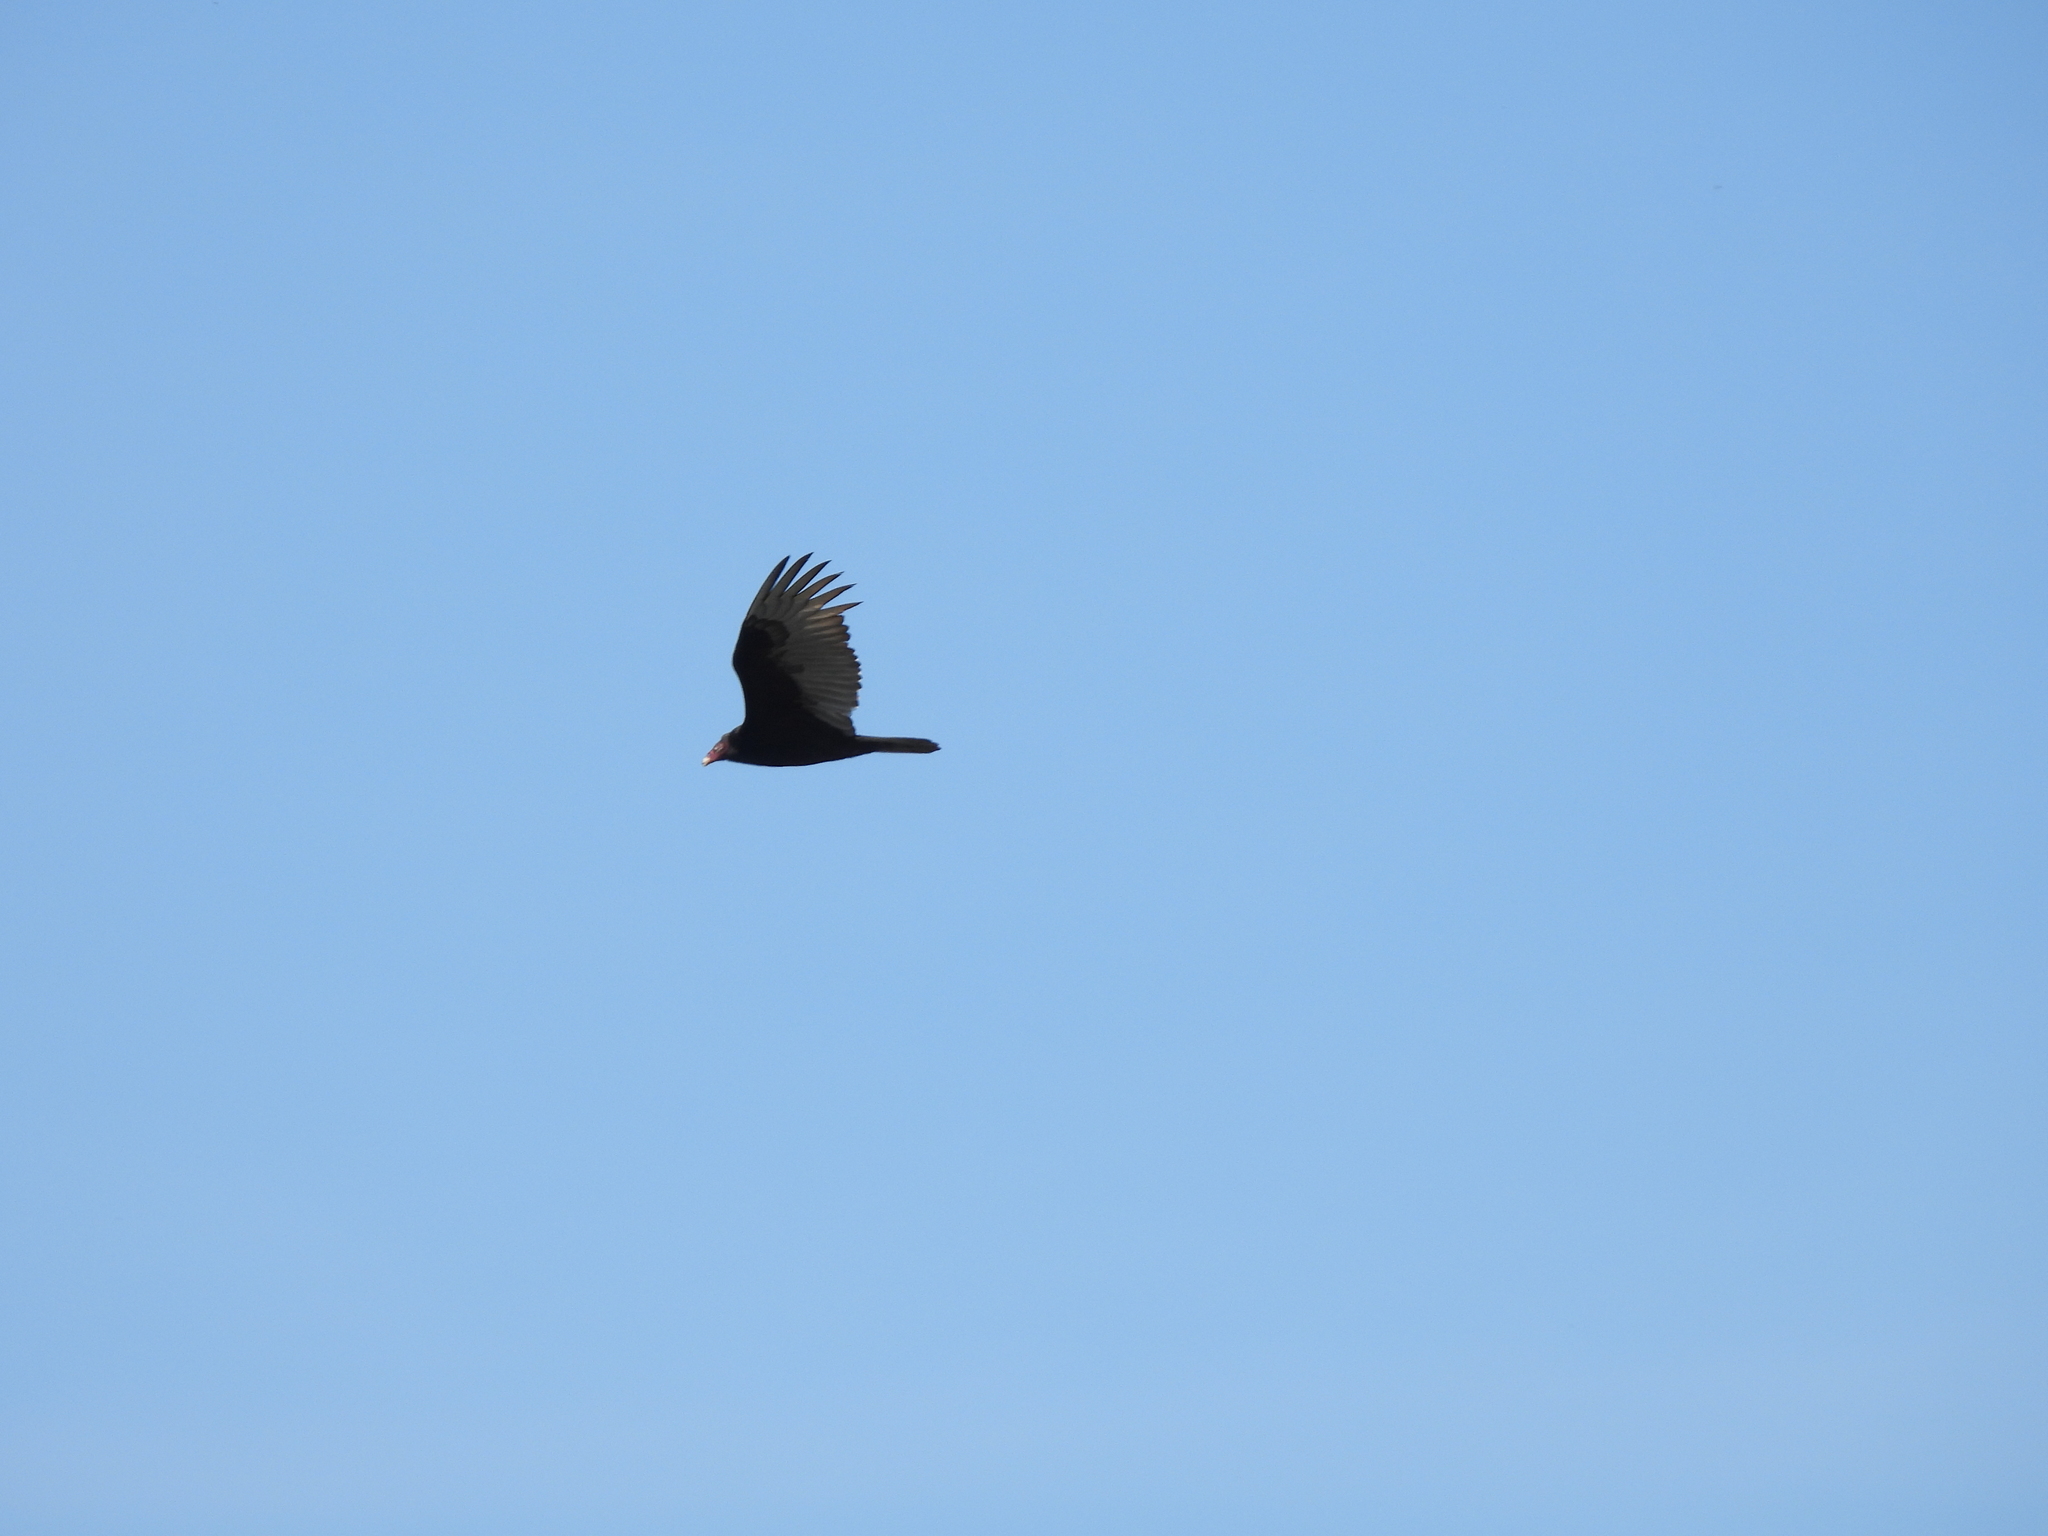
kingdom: Animalia
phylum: Chordata
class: Aves
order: Accipitriformes
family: Cathartidae
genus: Cathartes
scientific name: Cathartes aura
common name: Turkey vulture
